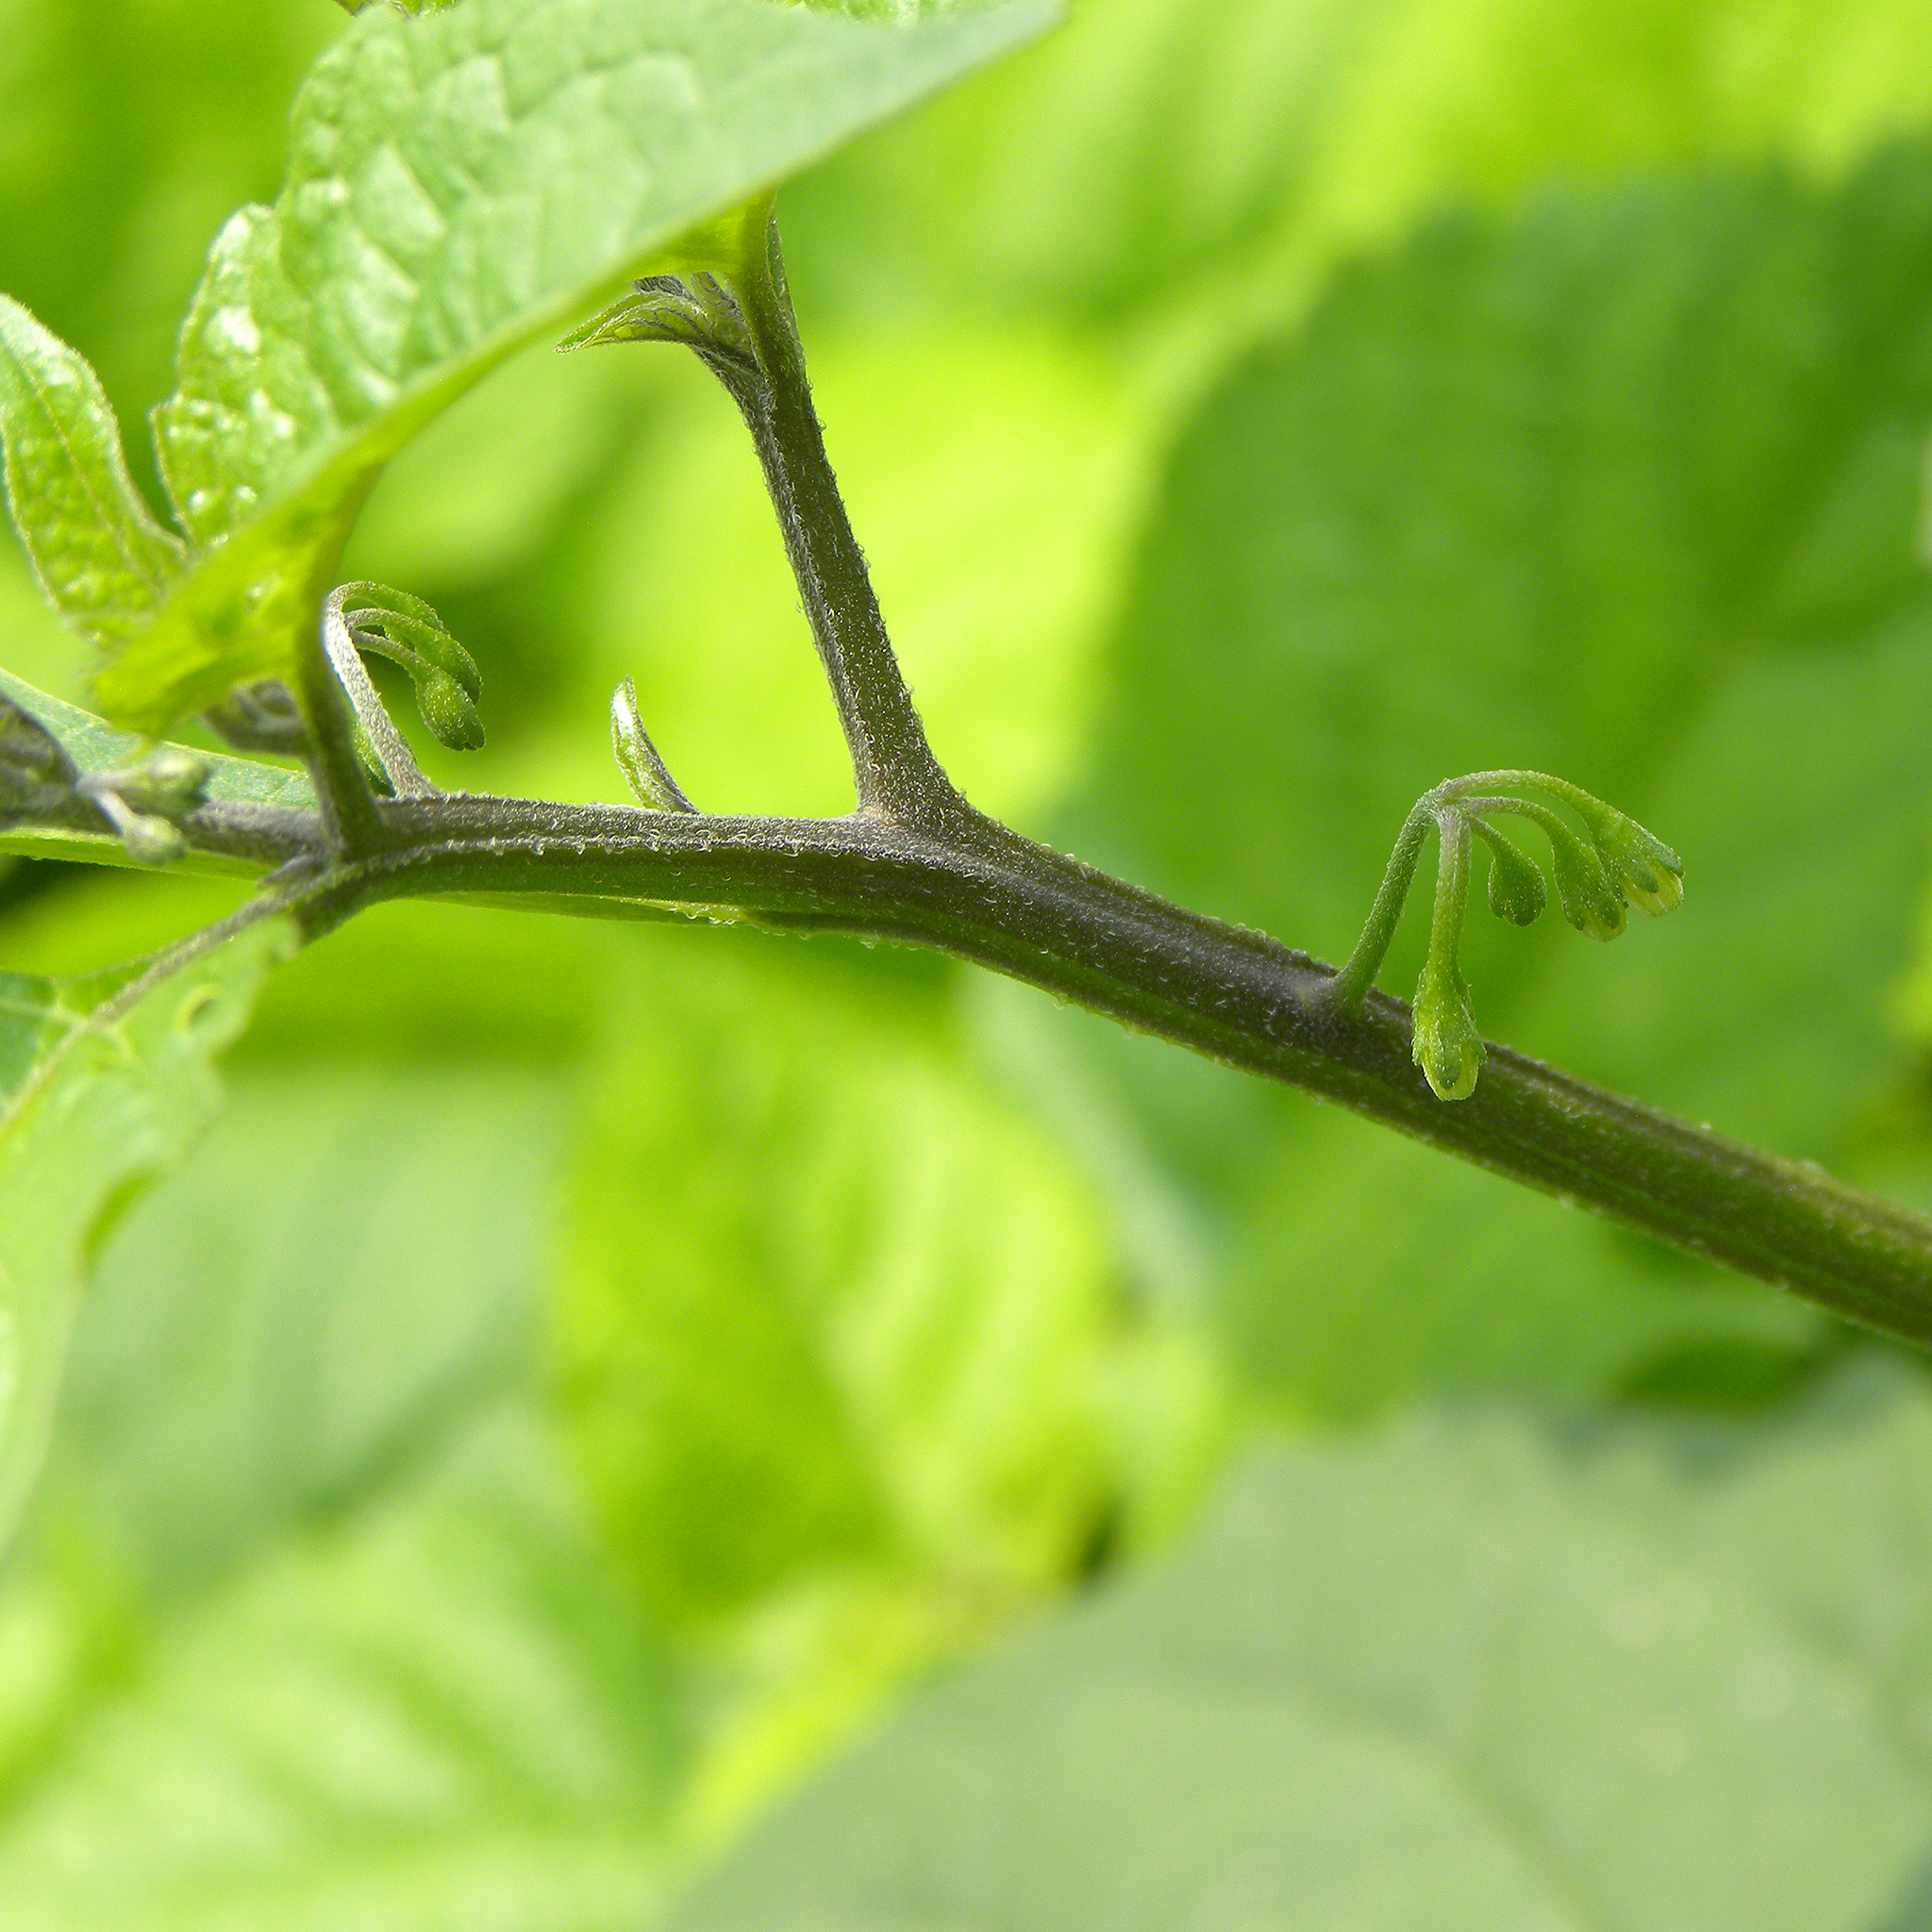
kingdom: Plantae
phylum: Tracheophyta
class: Magnoliopsida
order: Solanales
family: Solanaceae
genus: Solanum
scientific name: Solanum emulans
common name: Eastern black nightshade
